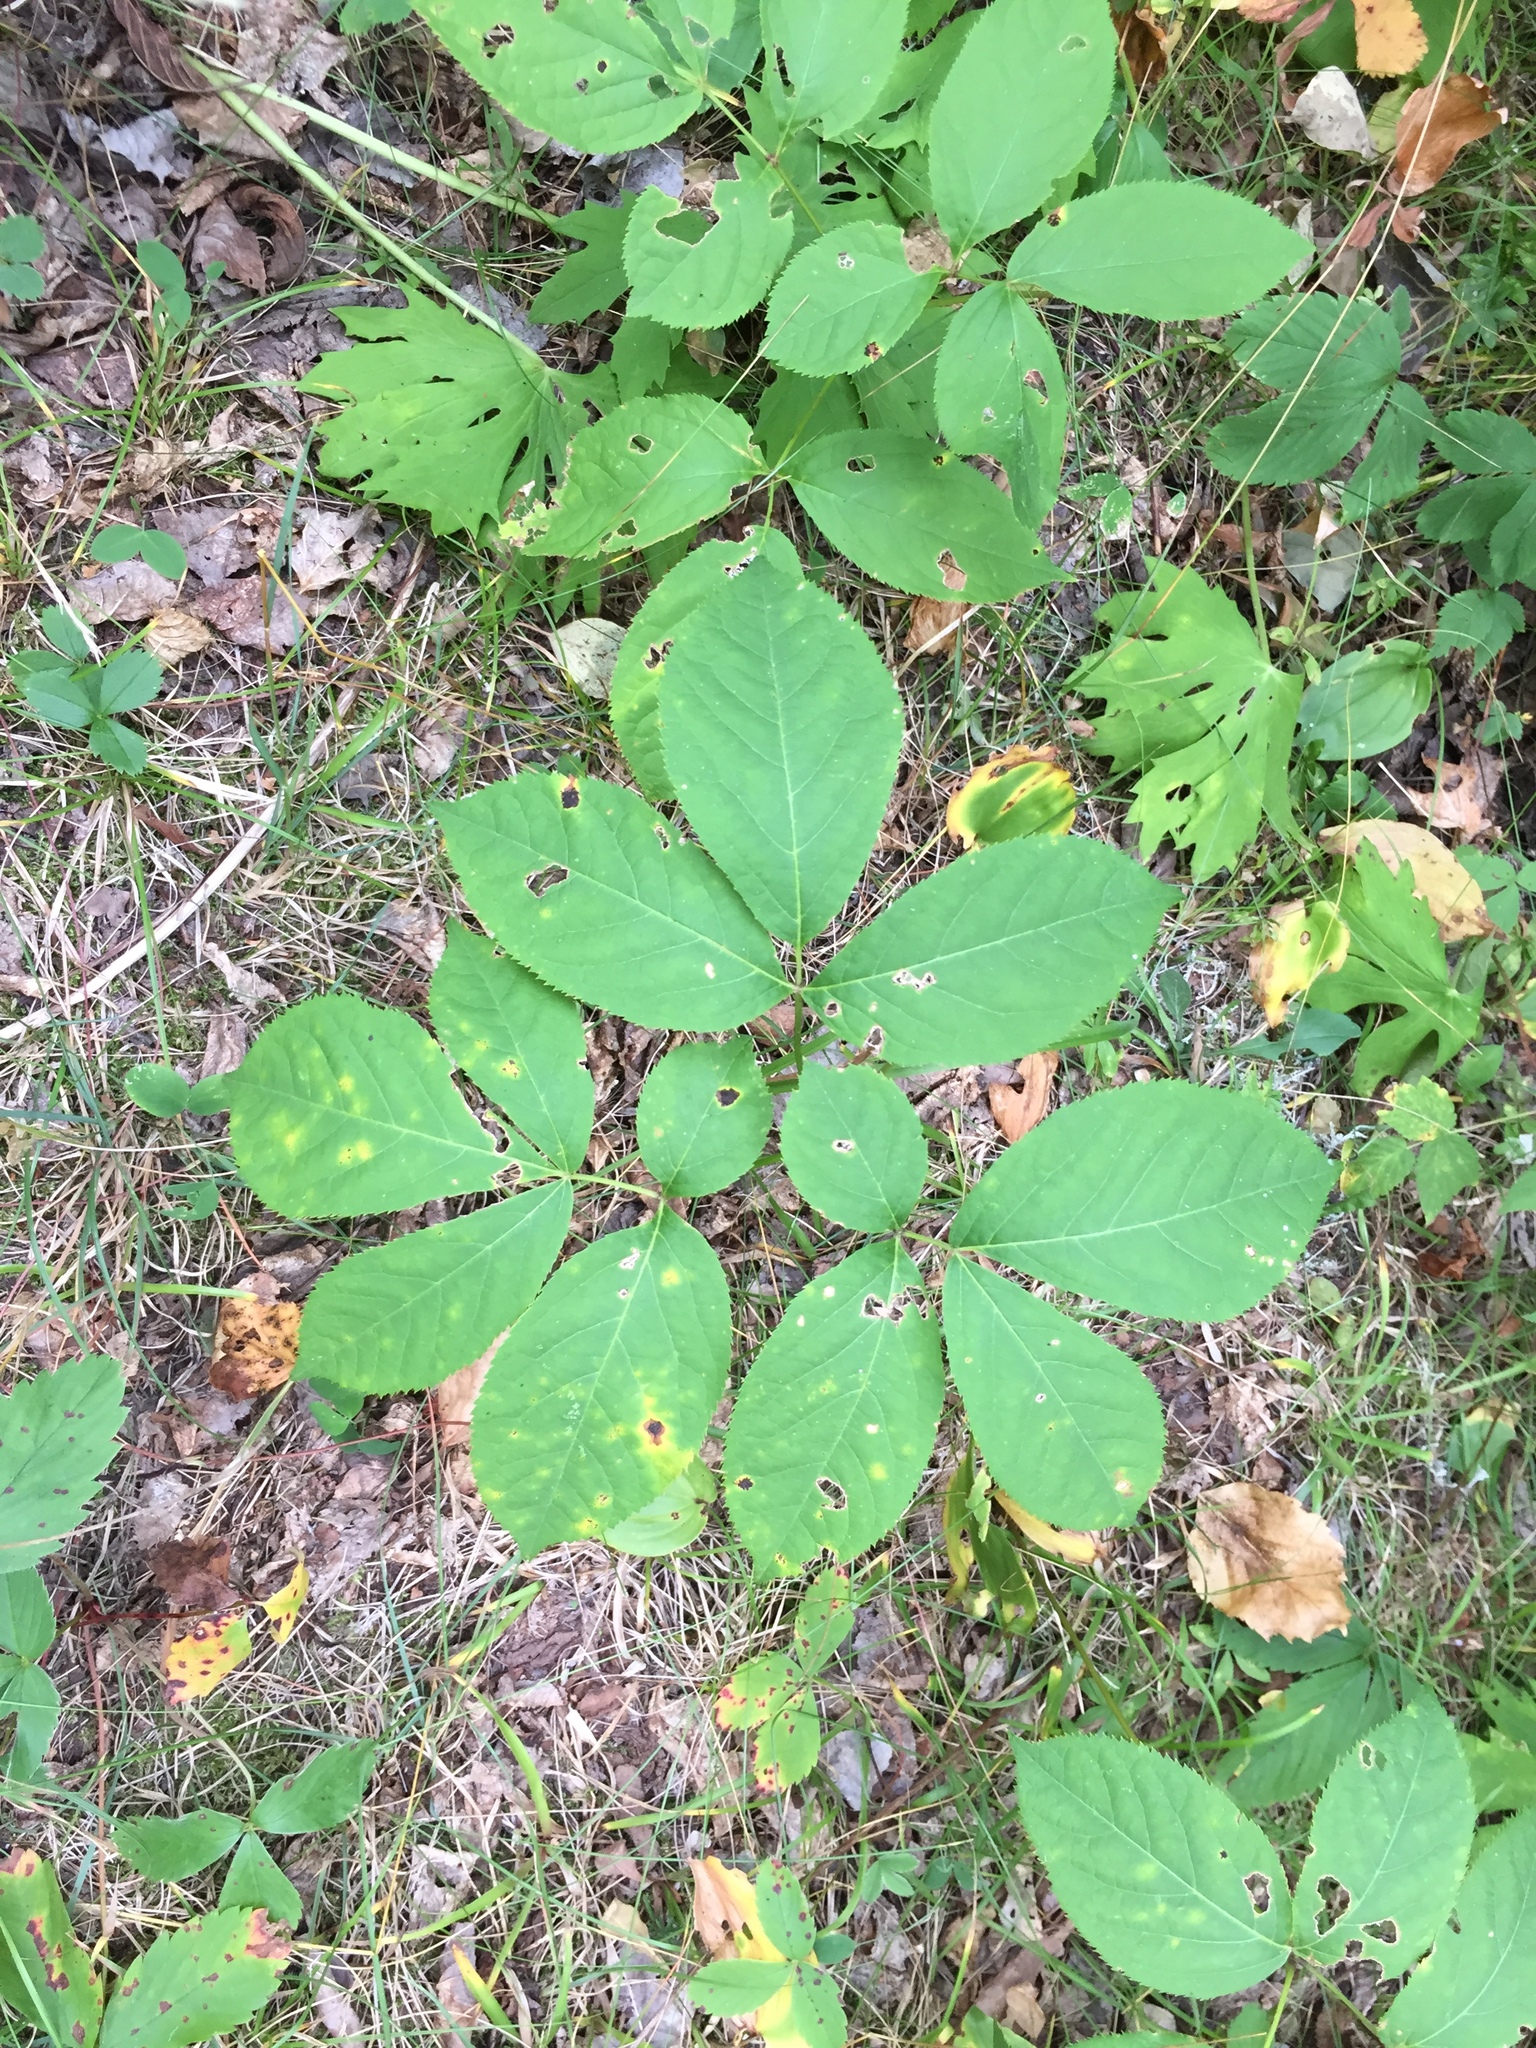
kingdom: Plantae
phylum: Tracheophyta
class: Magnoliopsida
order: Apiales
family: Araliaceae
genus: Aralia
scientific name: Aralia nudicaulis
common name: Wild sarsaparilla
